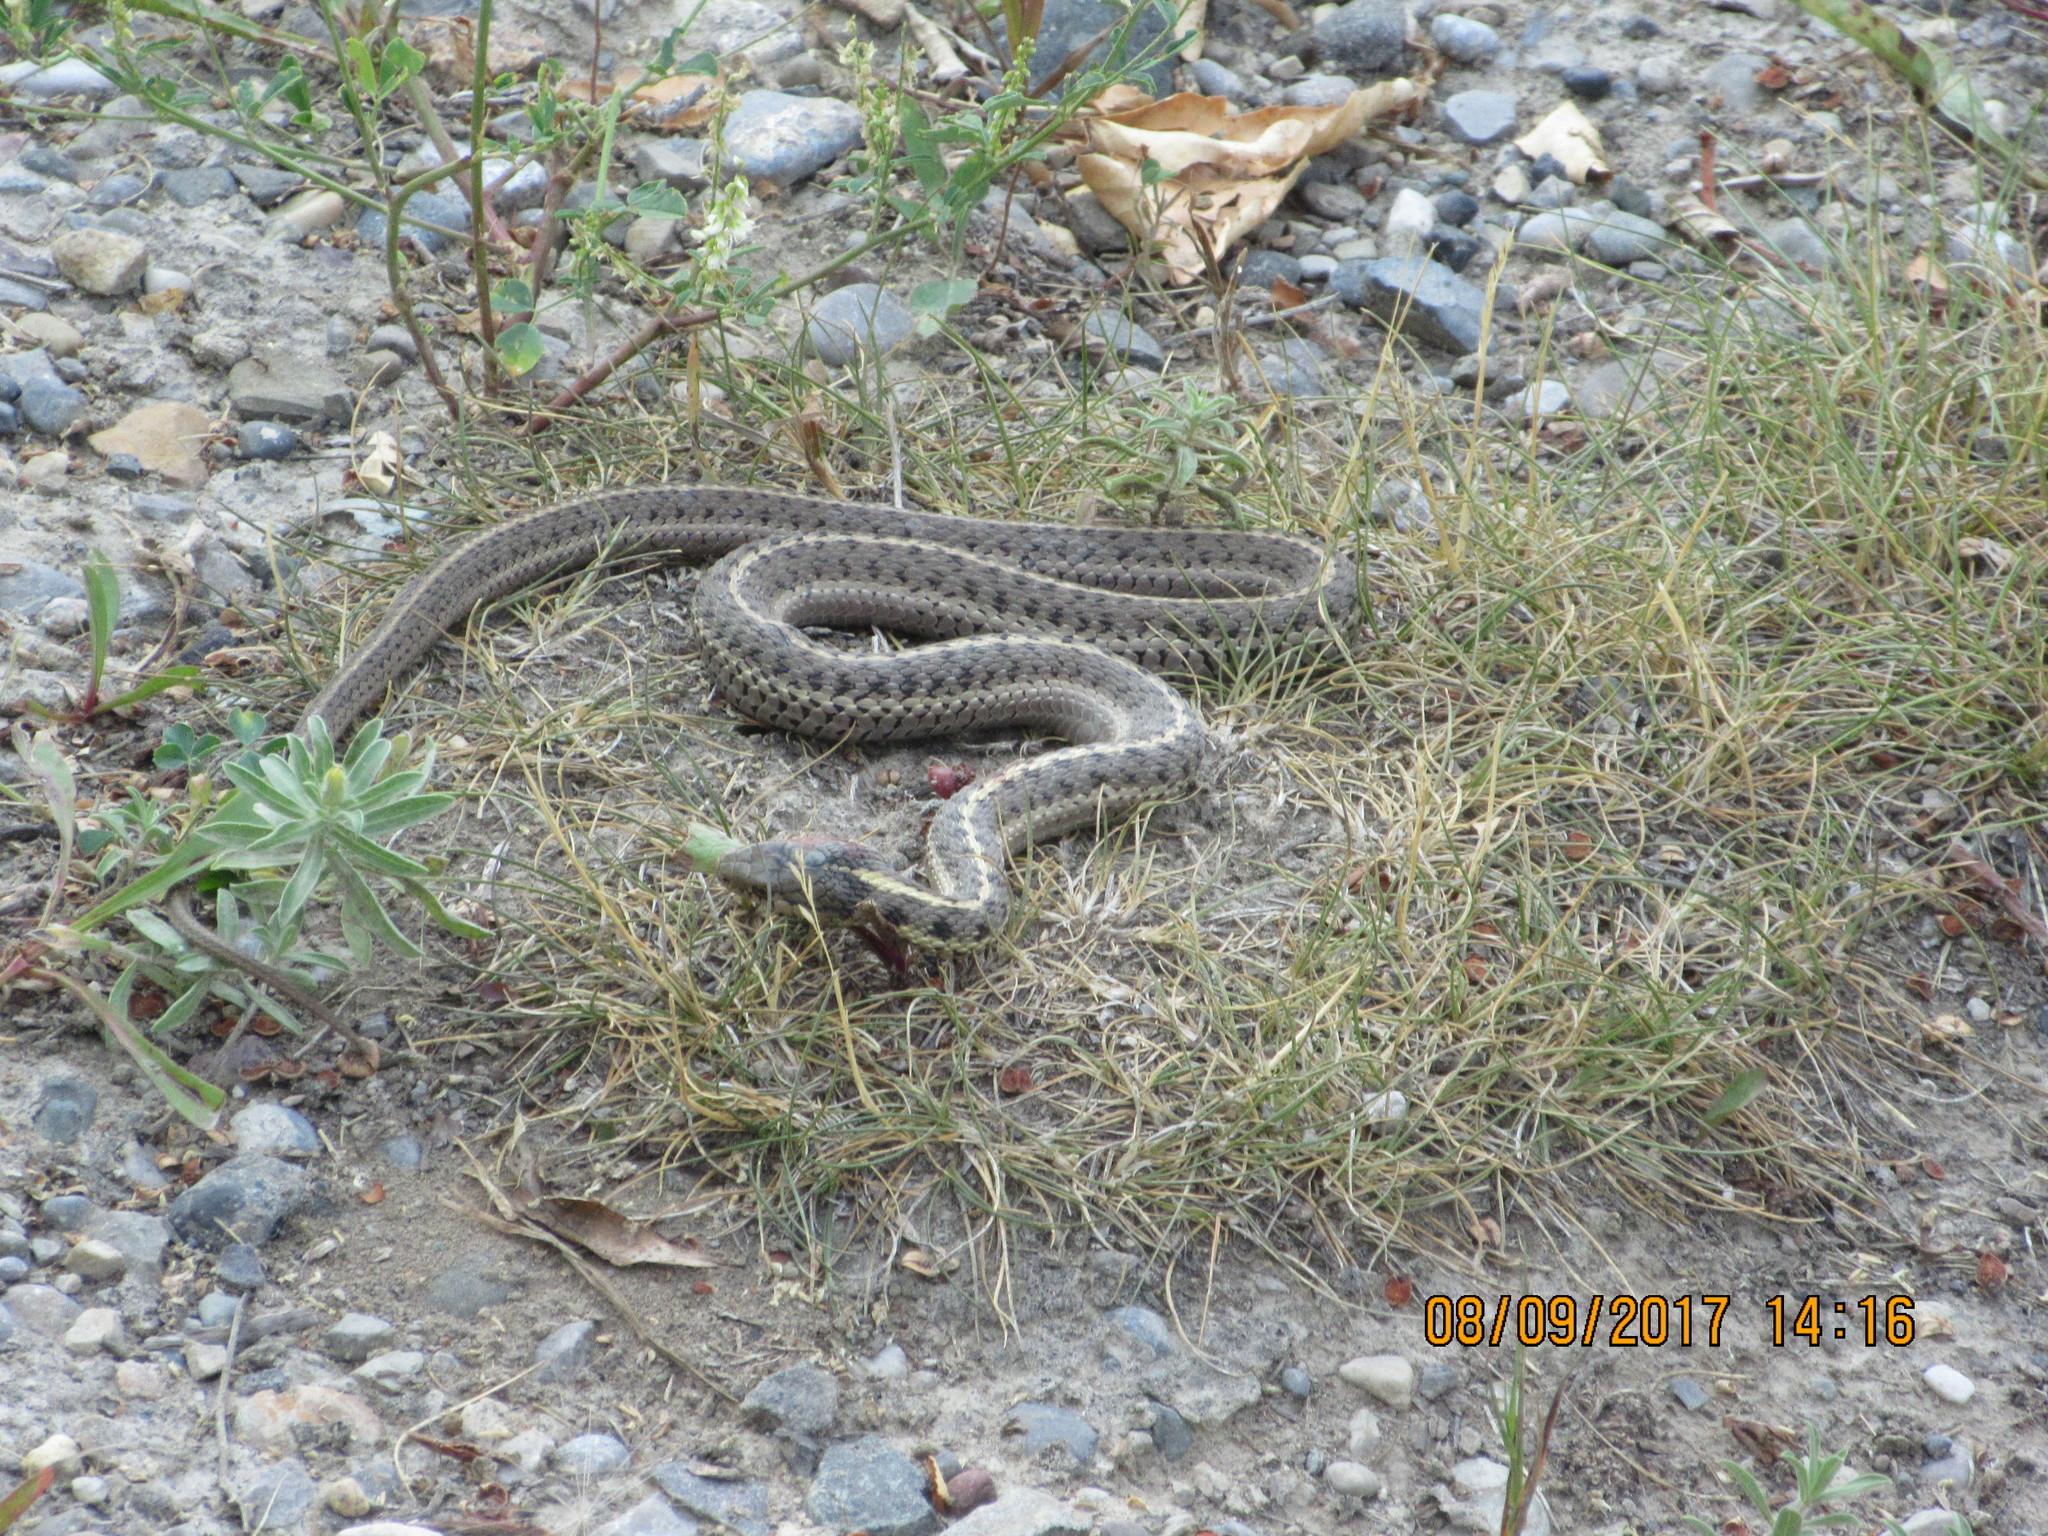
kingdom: Animalia
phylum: Chordata
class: Squamata
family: Colubridae
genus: Thamnophis
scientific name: Thamnophis elegans
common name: Western terrestrial garter snake
